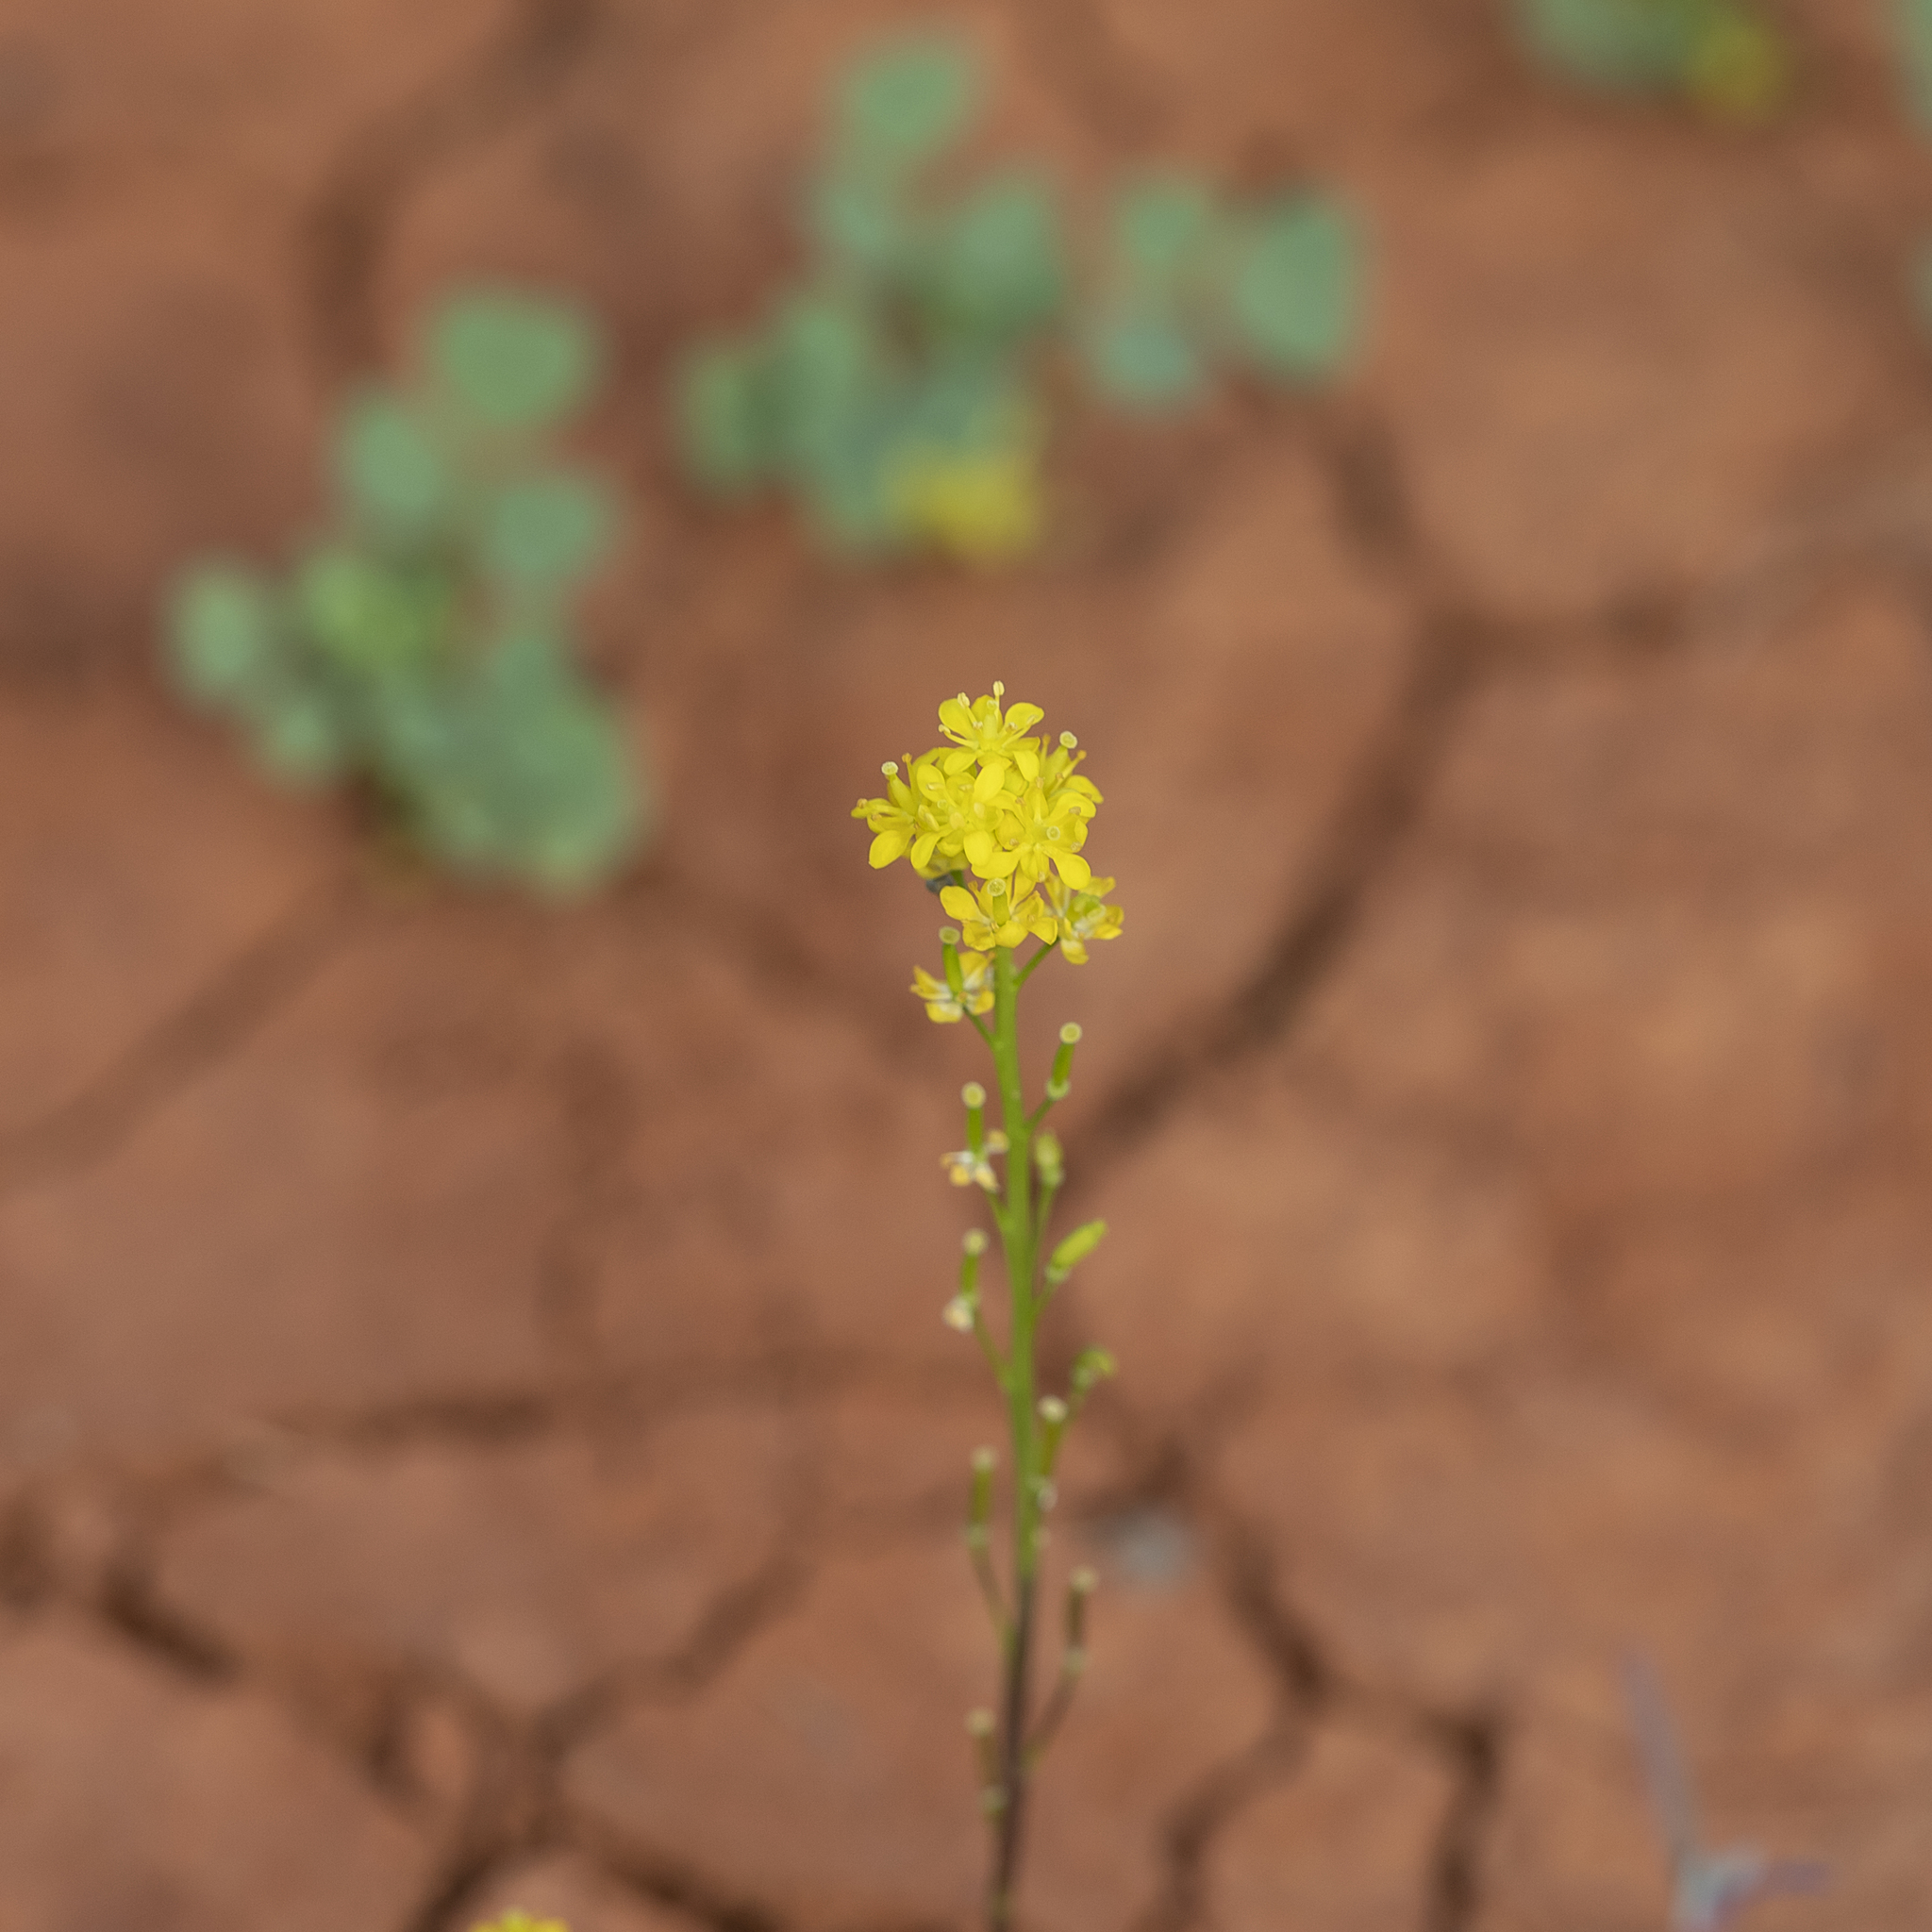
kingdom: Plantae
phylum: Tracheophyta
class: Magnoliopsida
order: Brassicales
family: Brassicaceae
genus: Arabidella
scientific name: Arabidella nasturtium
